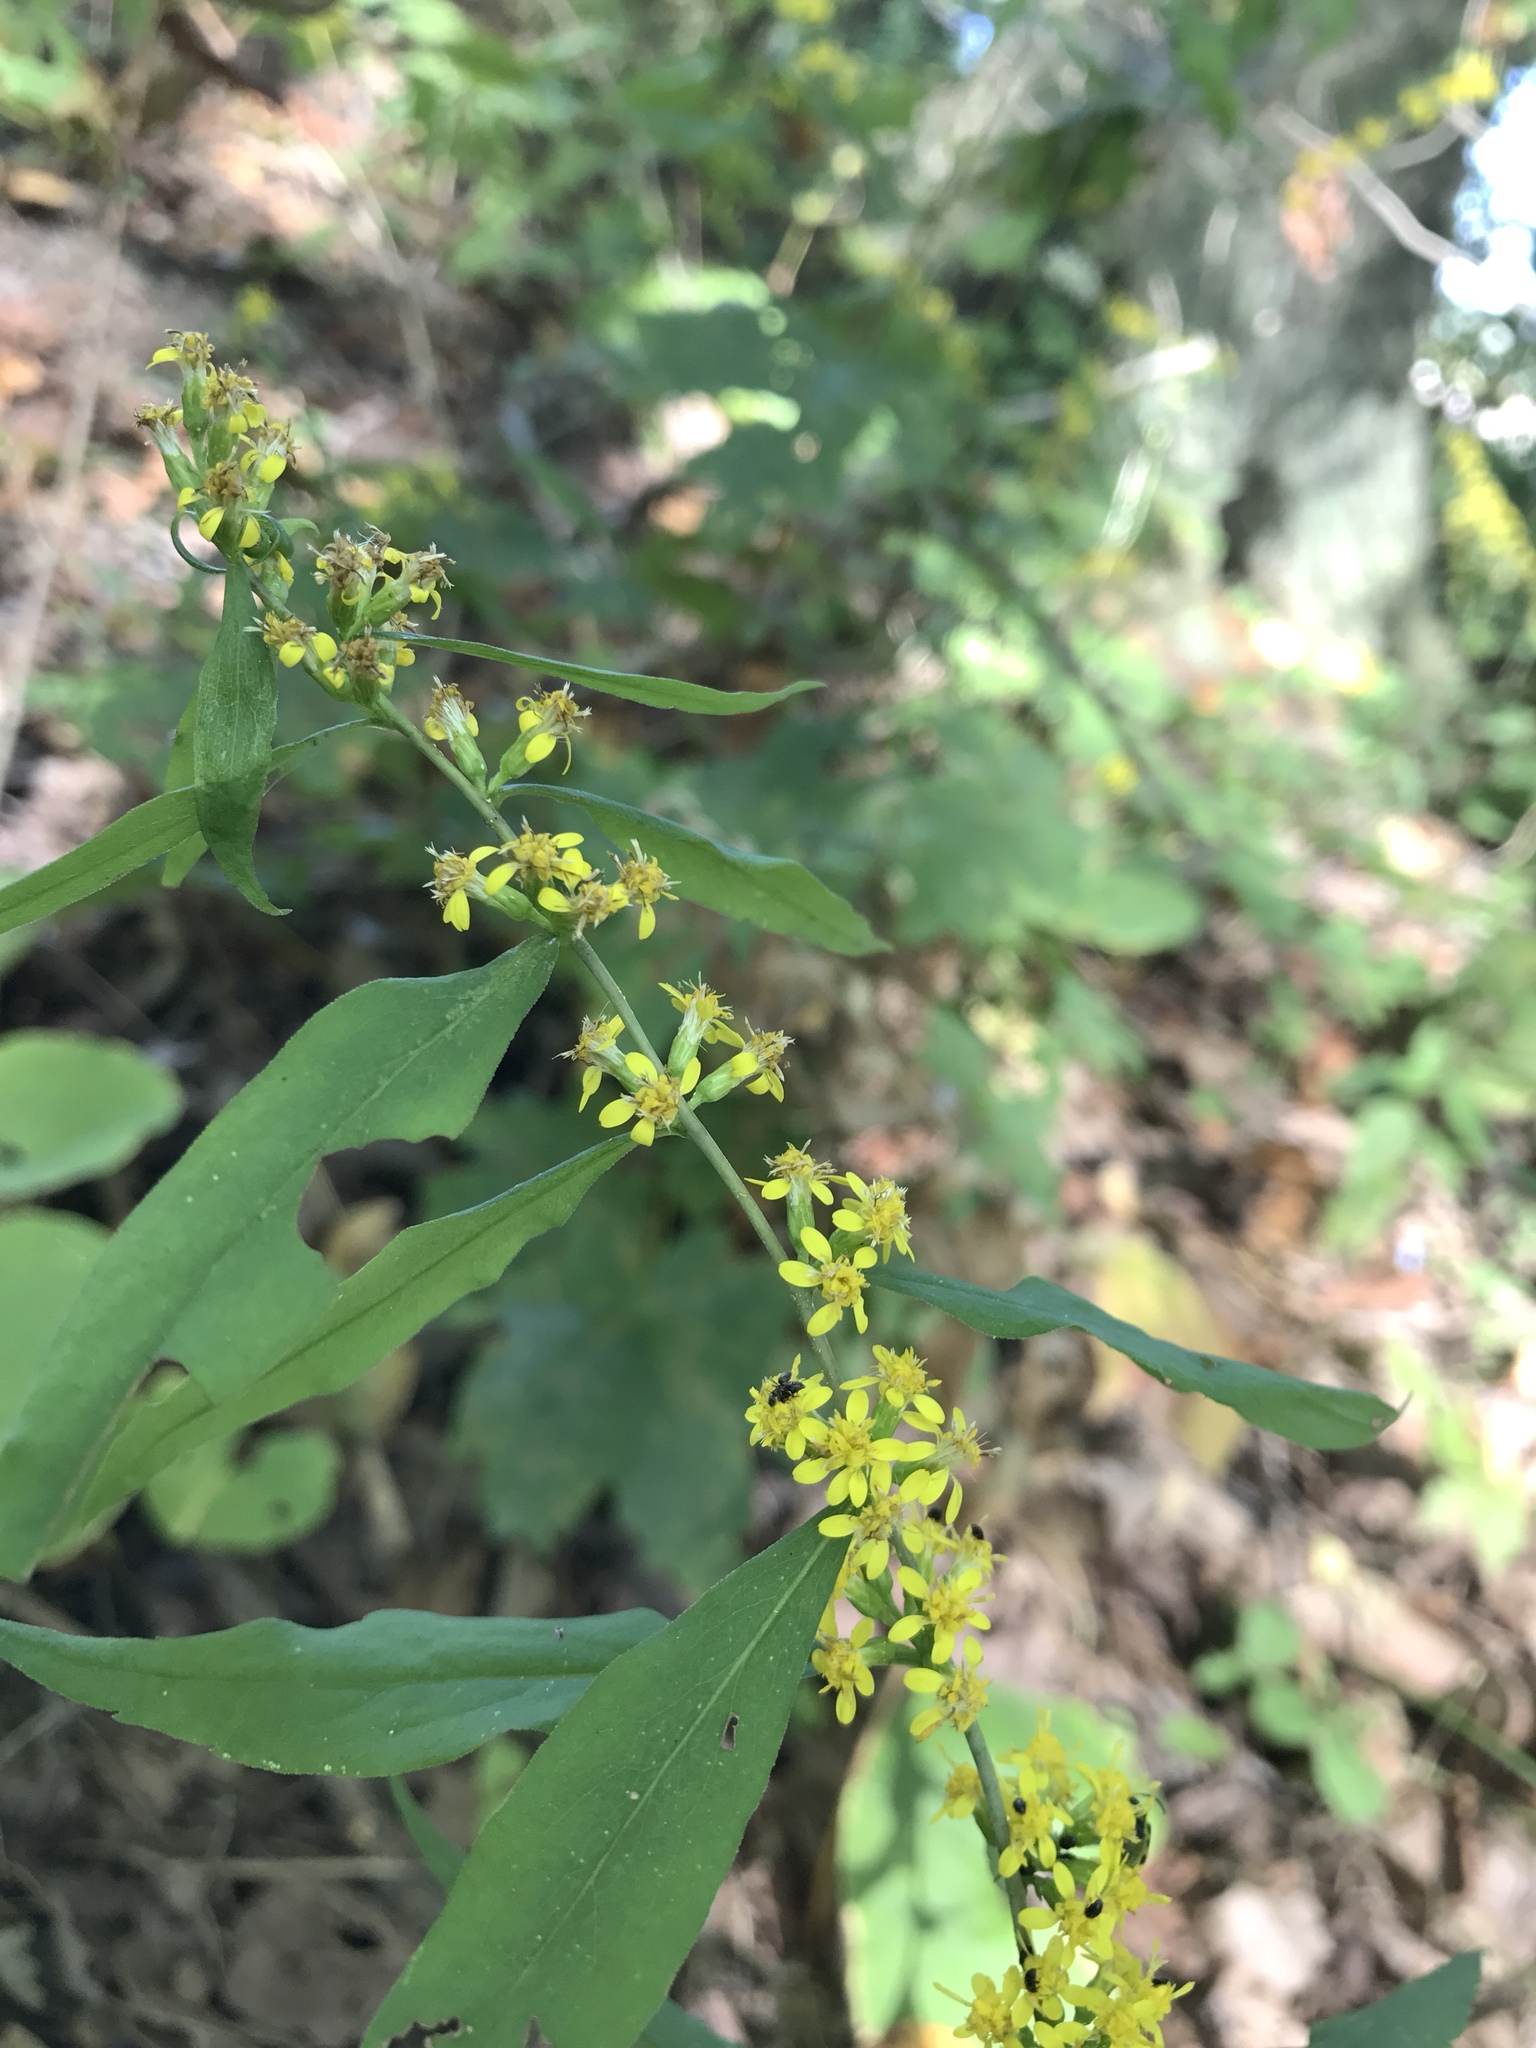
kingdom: Plantae
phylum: Tracheophyta
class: Magnoliopsida
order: Asterales
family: Asteraceae
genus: Solidago
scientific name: Solidago caesia
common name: Woodland goldenrod
